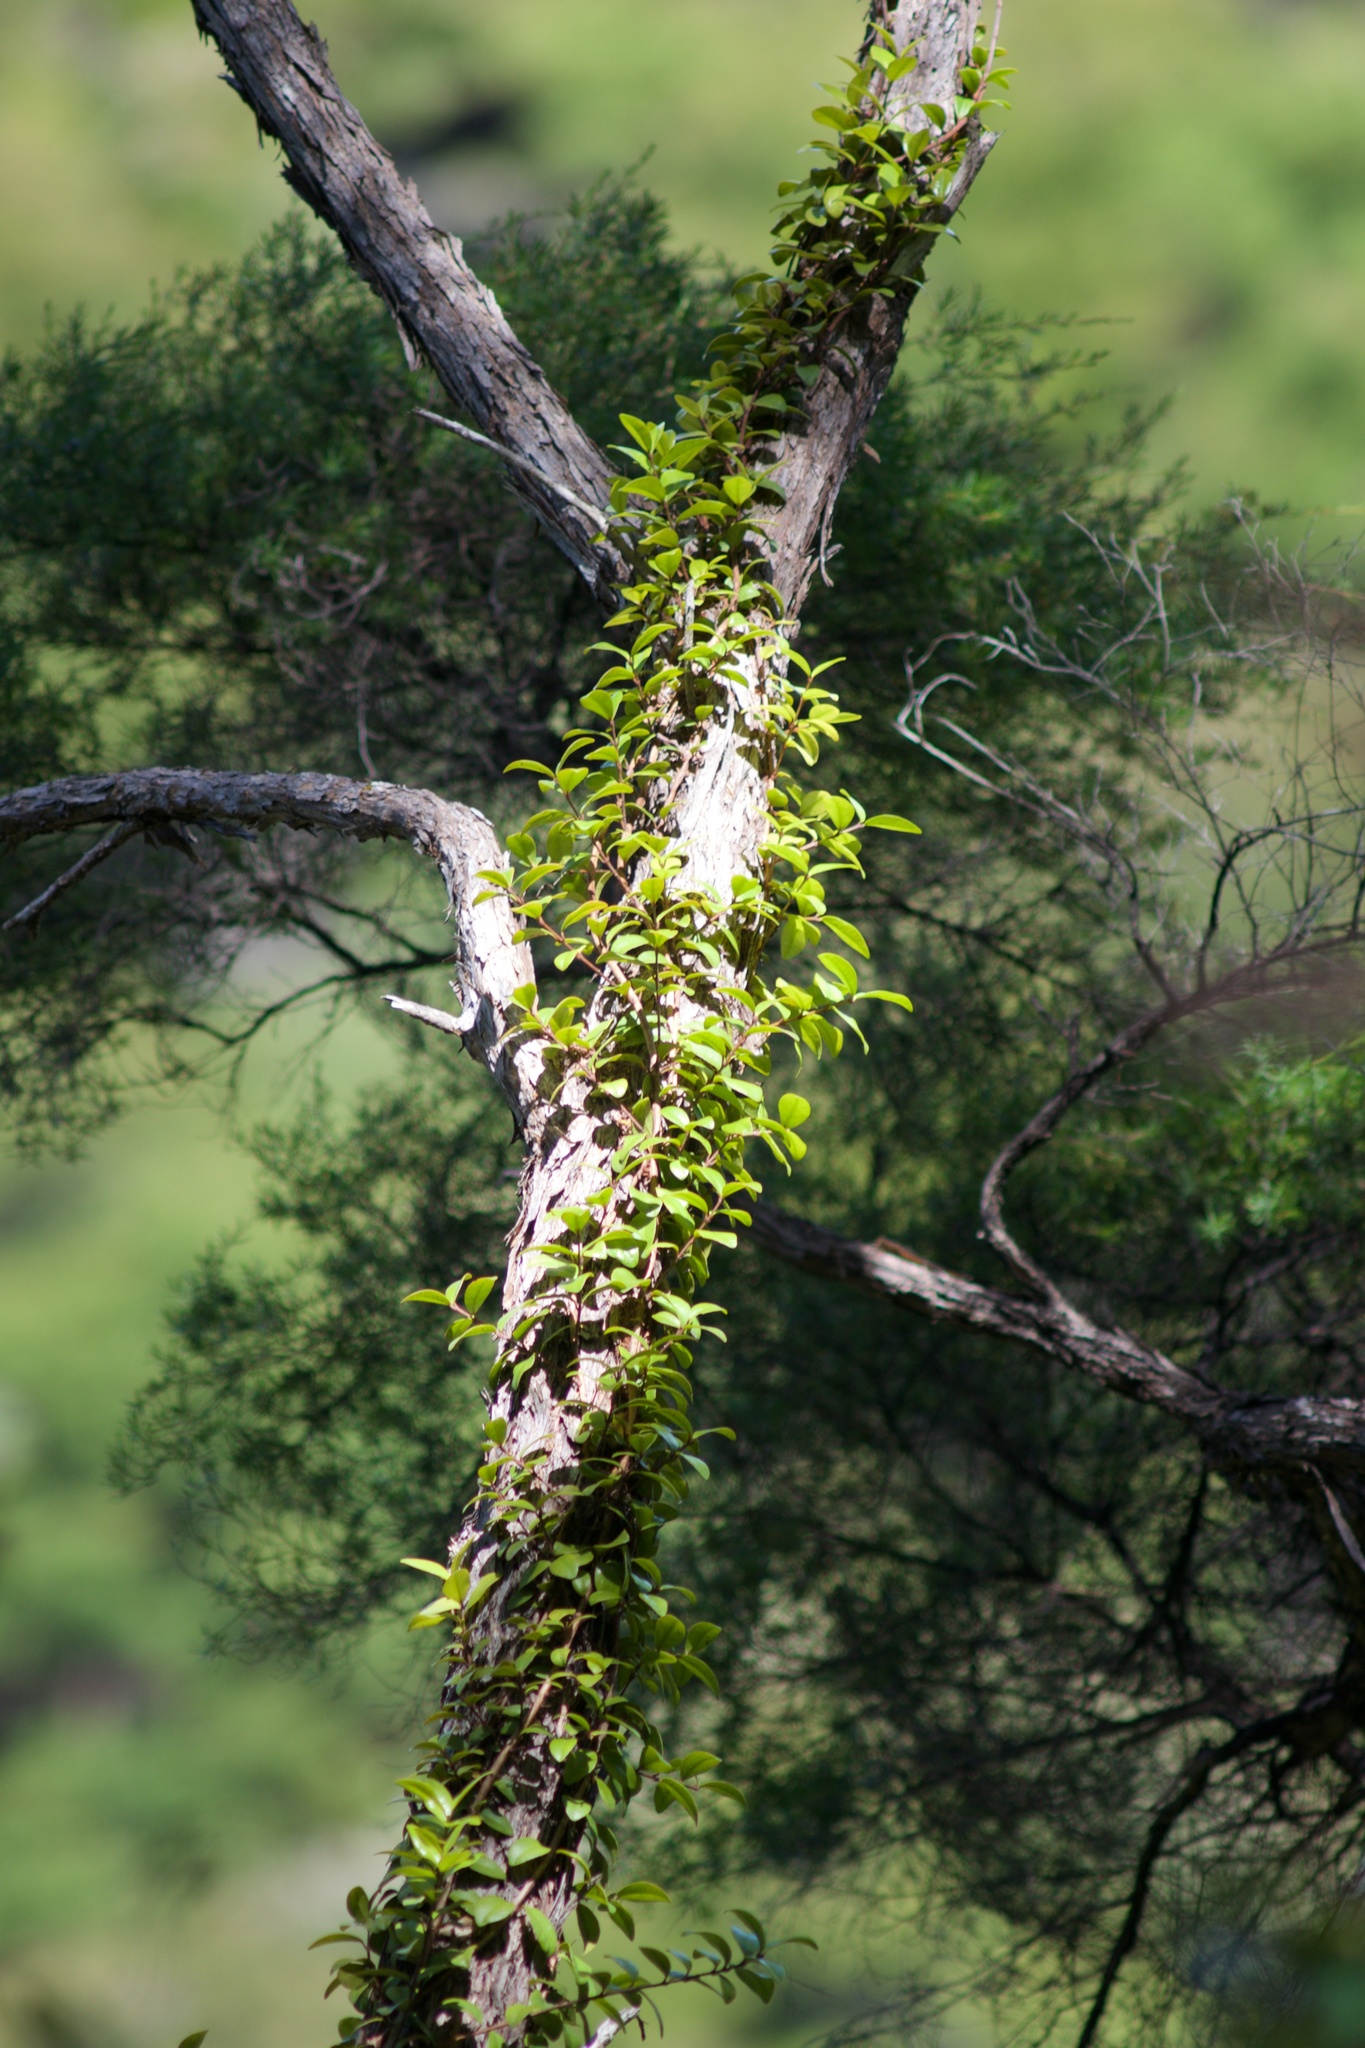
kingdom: Plantae
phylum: Tracheophyta
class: Magnoliopsida
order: Myrtales
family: Myrtaceae
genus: Metrosideros
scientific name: Metrosideros fulgens
